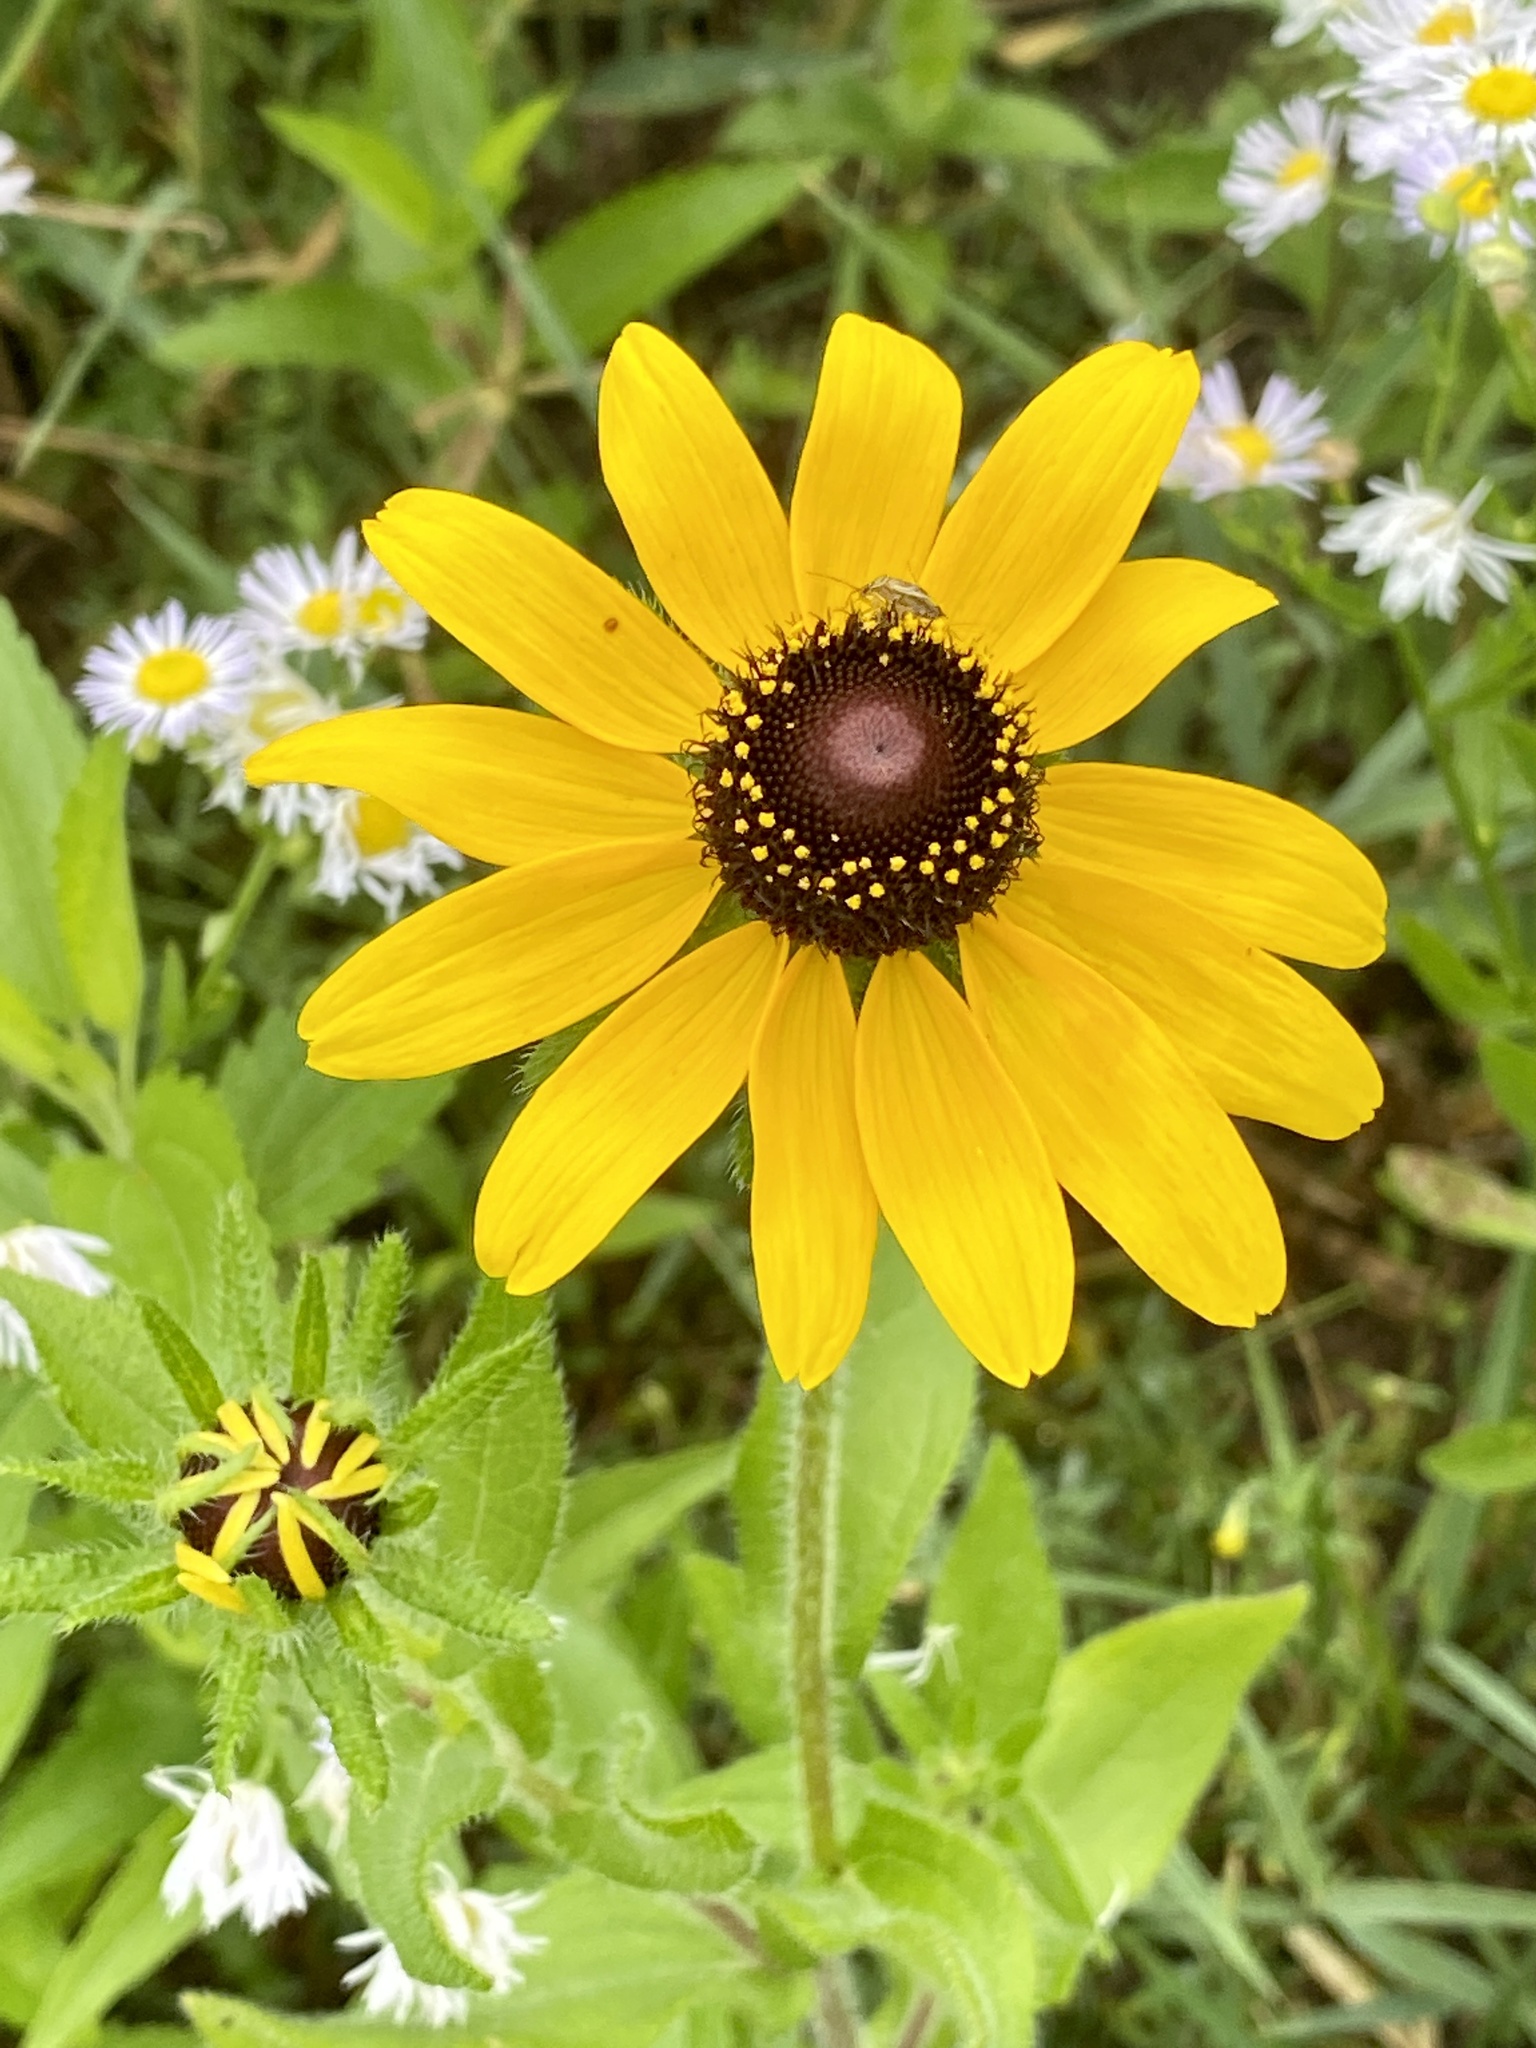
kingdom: Plantae
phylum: Tracheophyta
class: Magnoliopsida
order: Asterales
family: Asteraceae
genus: Rudbeckia
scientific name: Rudbeckia hirta
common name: Black-eyed-susan
